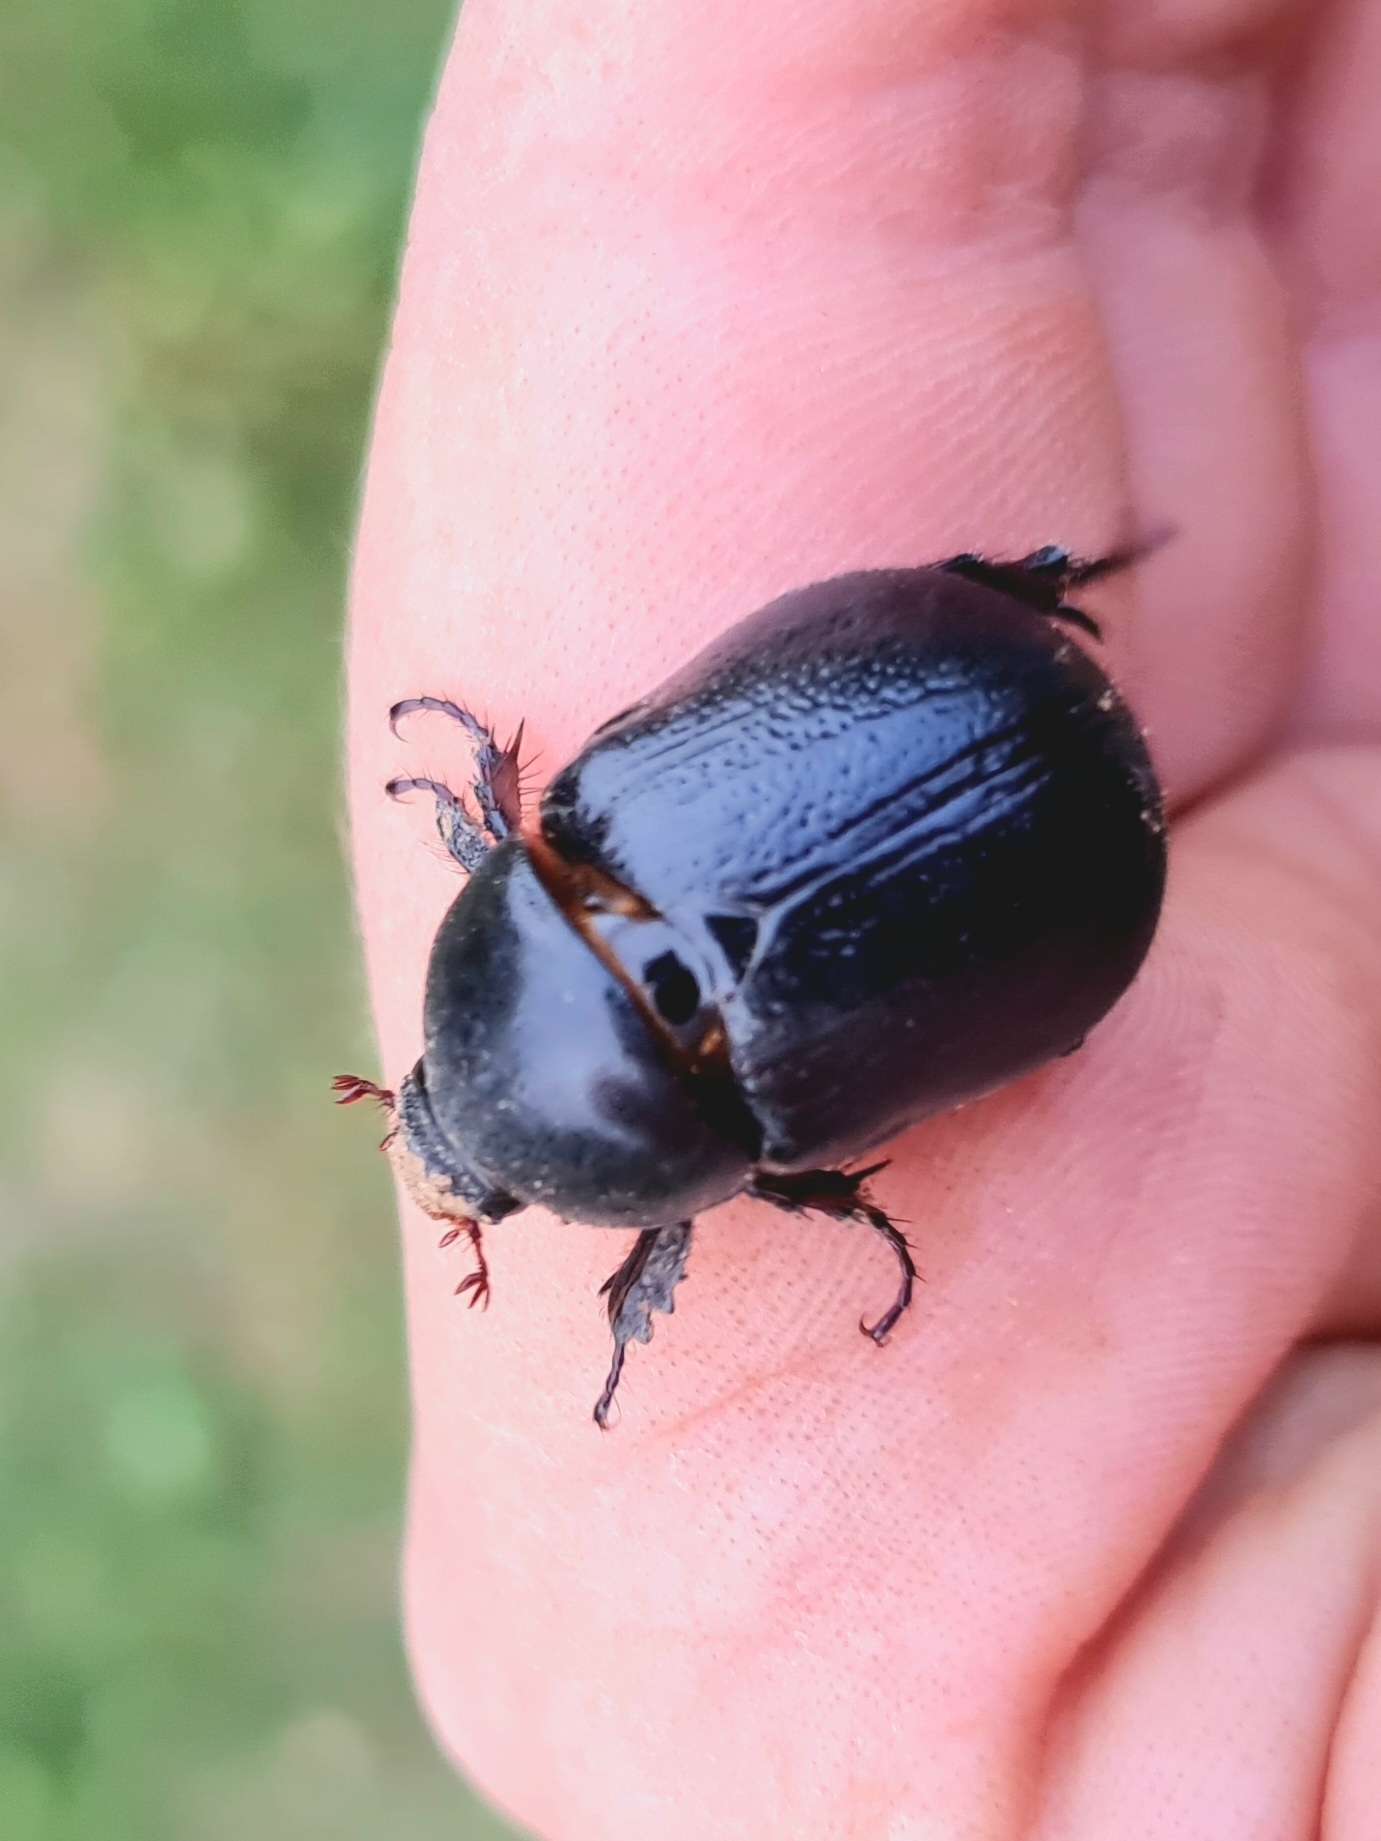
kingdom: Animalia
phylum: Arthropoda
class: Insecta
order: Coleoptera
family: Scarabaeidae
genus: Pentodon
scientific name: Pentodon bidens
